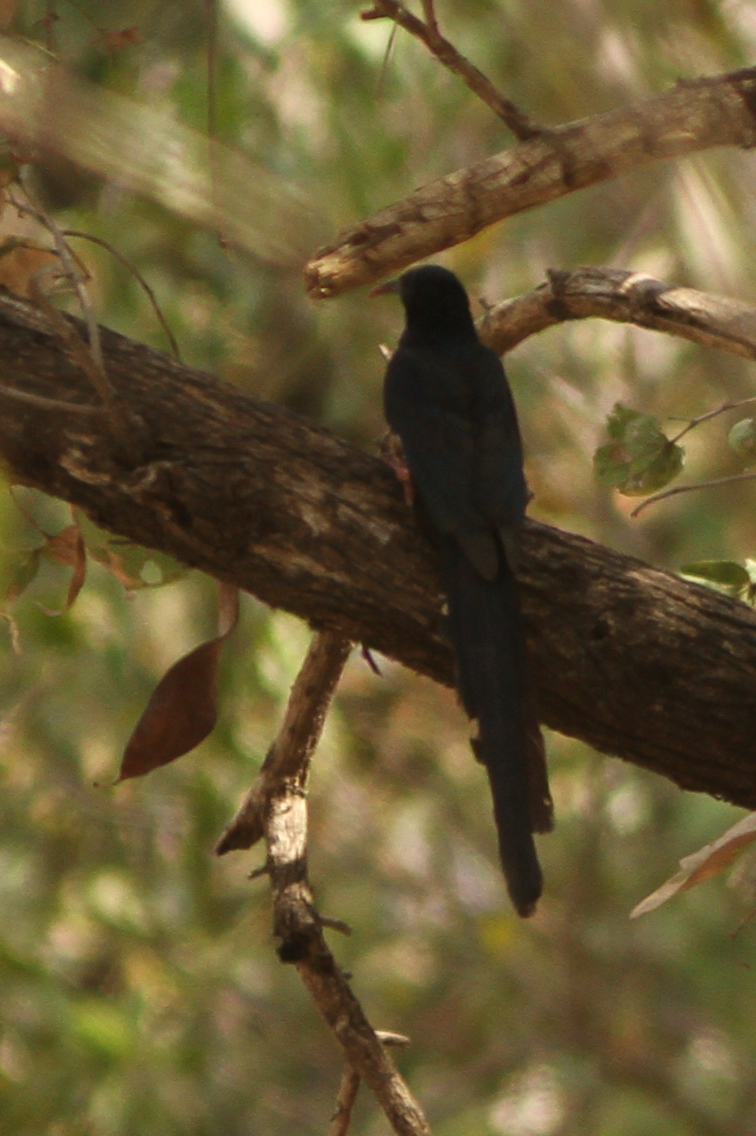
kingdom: Animalia
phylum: Chordata
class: Aves
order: Bucerotiformes
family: Phoeniculidae
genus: Phoeniculus
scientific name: Phoeniculus purpureus
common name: Green woodhoopoe
